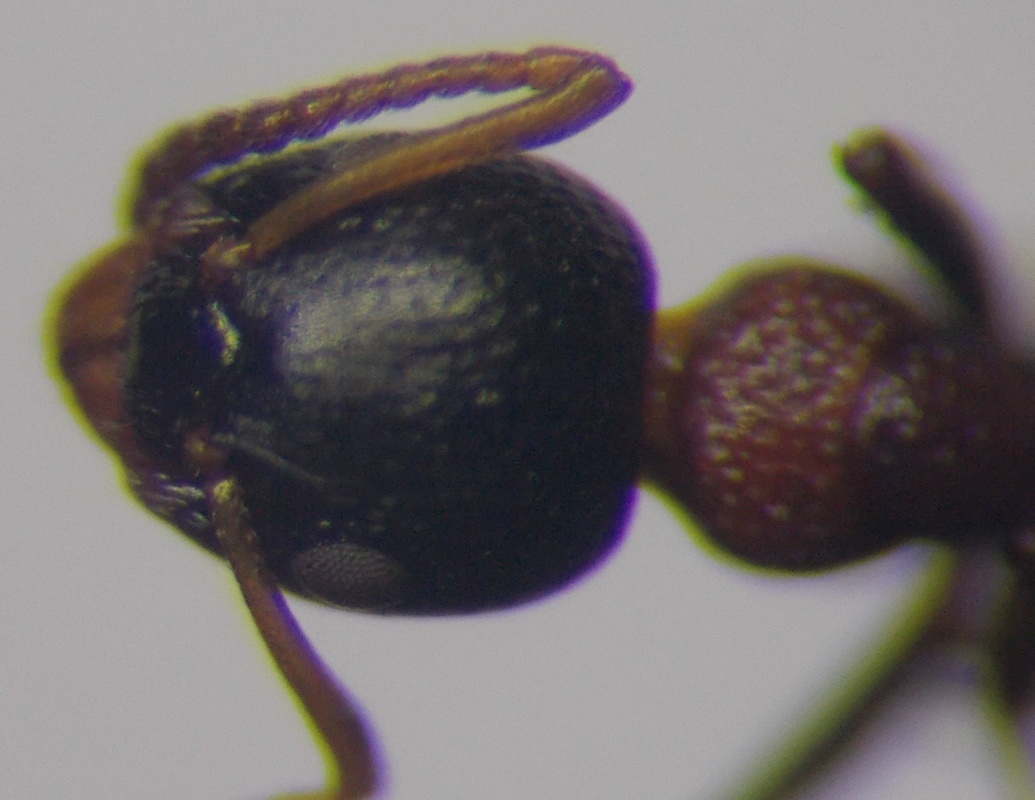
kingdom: Animalia
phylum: Arthropoda
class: Insecta
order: Hymenoptera
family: Formicidae
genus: Dolichoderus
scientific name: Dolichoderus quadripunctatus
